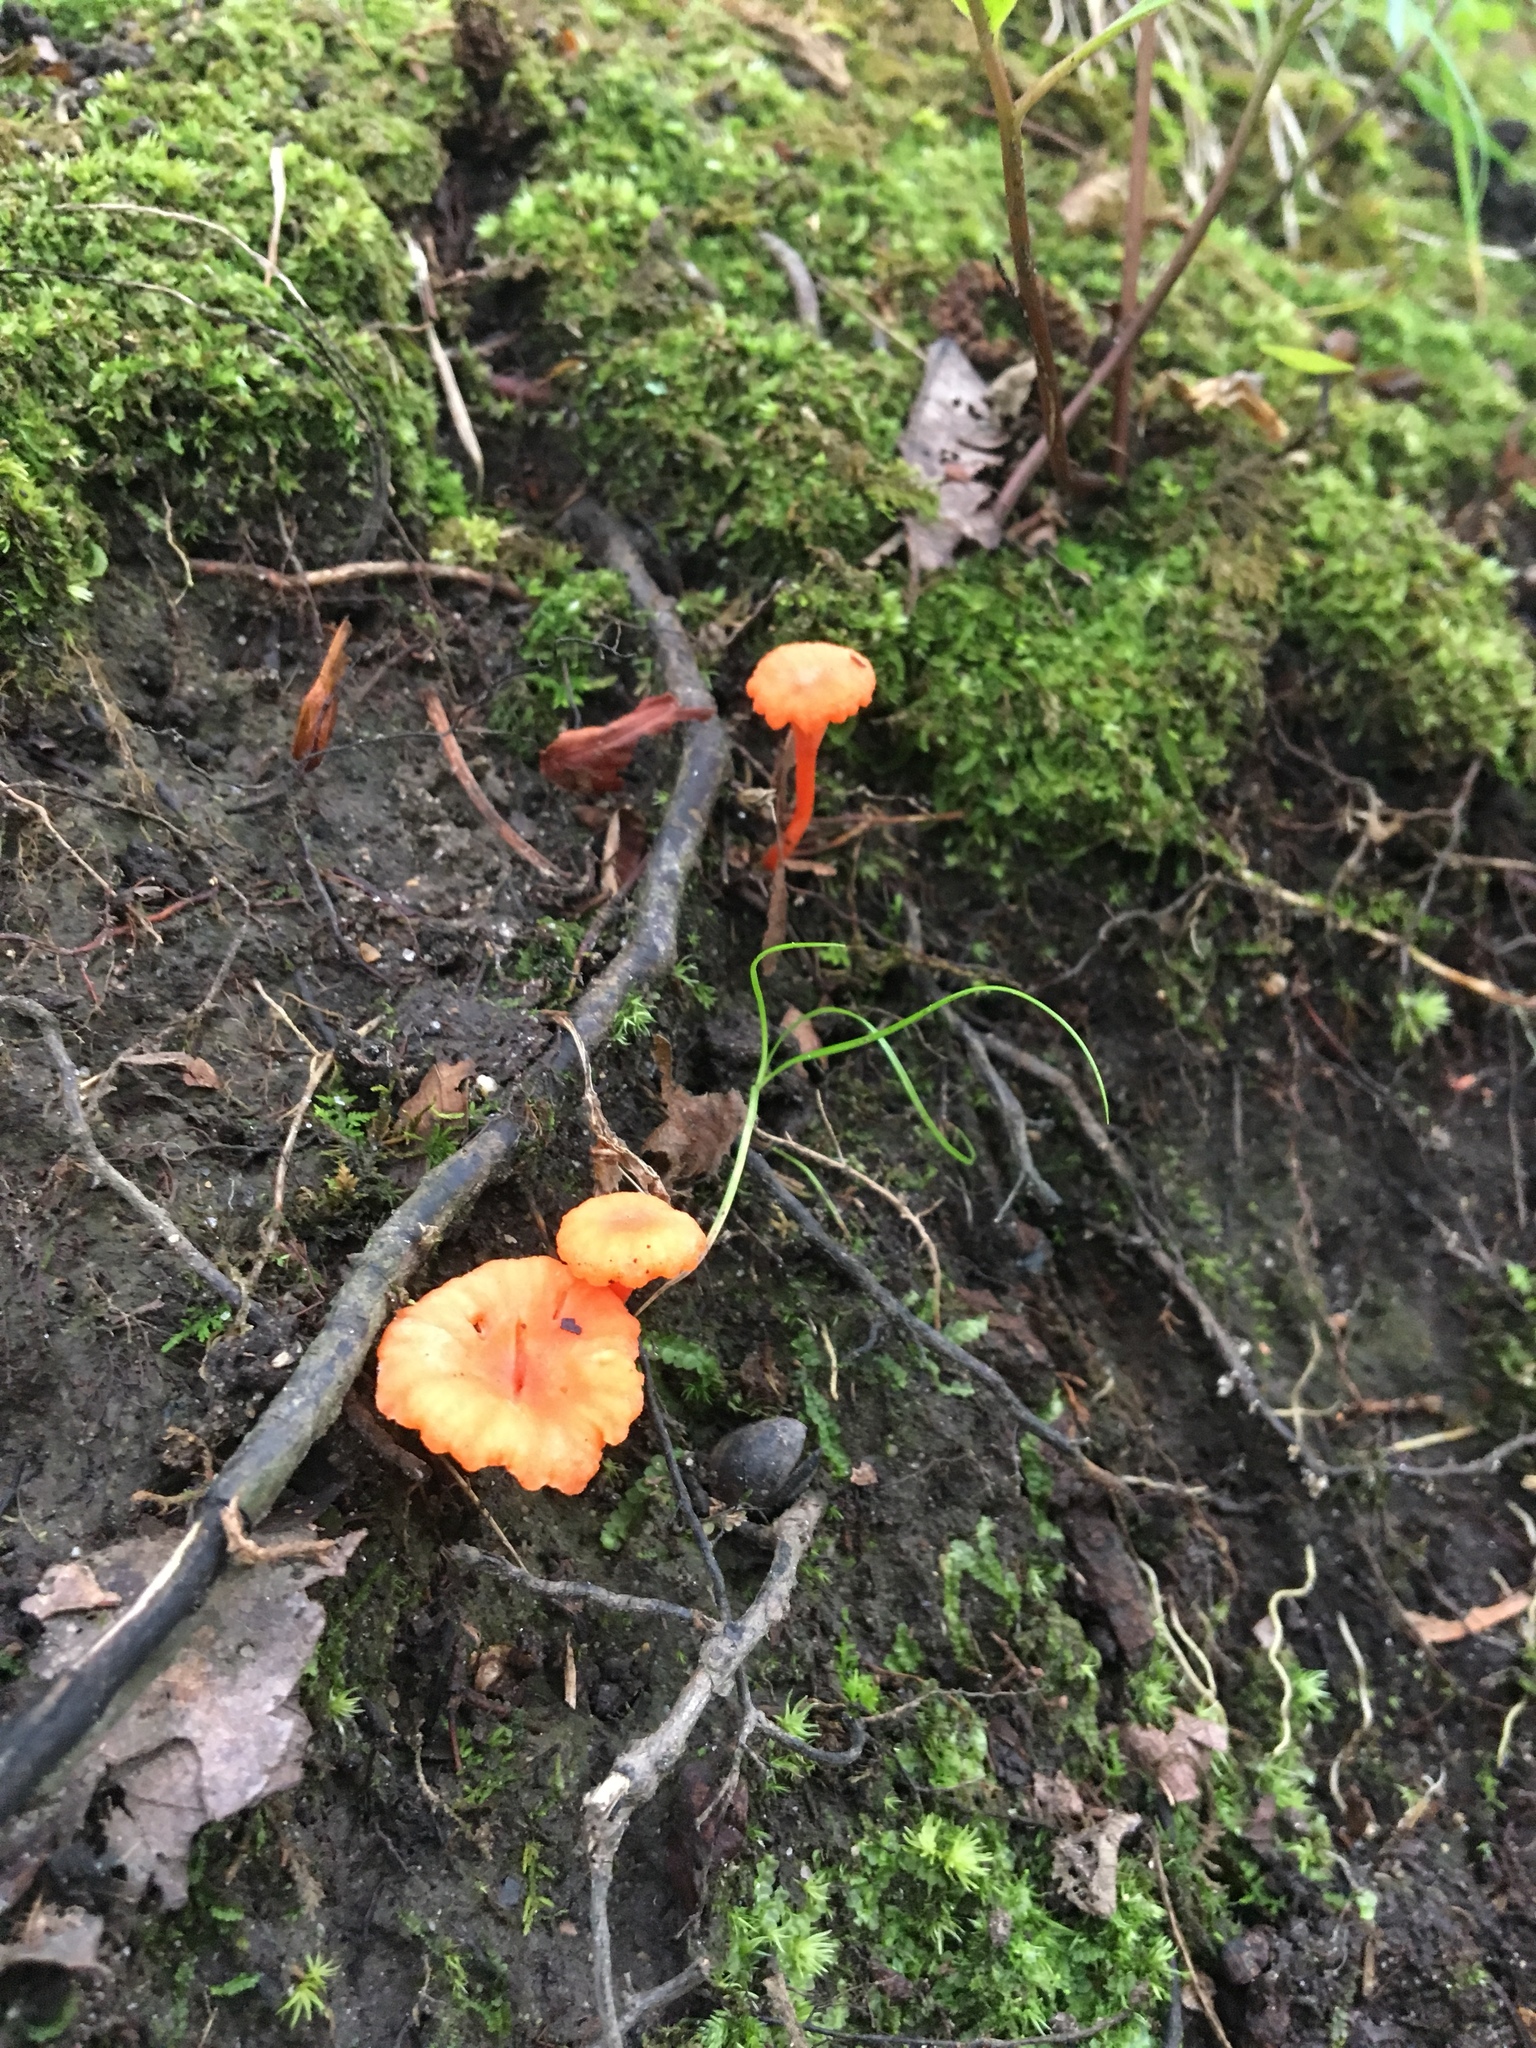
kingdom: Fungi
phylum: Basidiomycota
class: Agaricomycetes
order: Cantharellales
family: Hydnaceae
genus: Cantharellus
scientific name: Cantharellus cinnabarinus
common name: Cinnabar chanterelle
